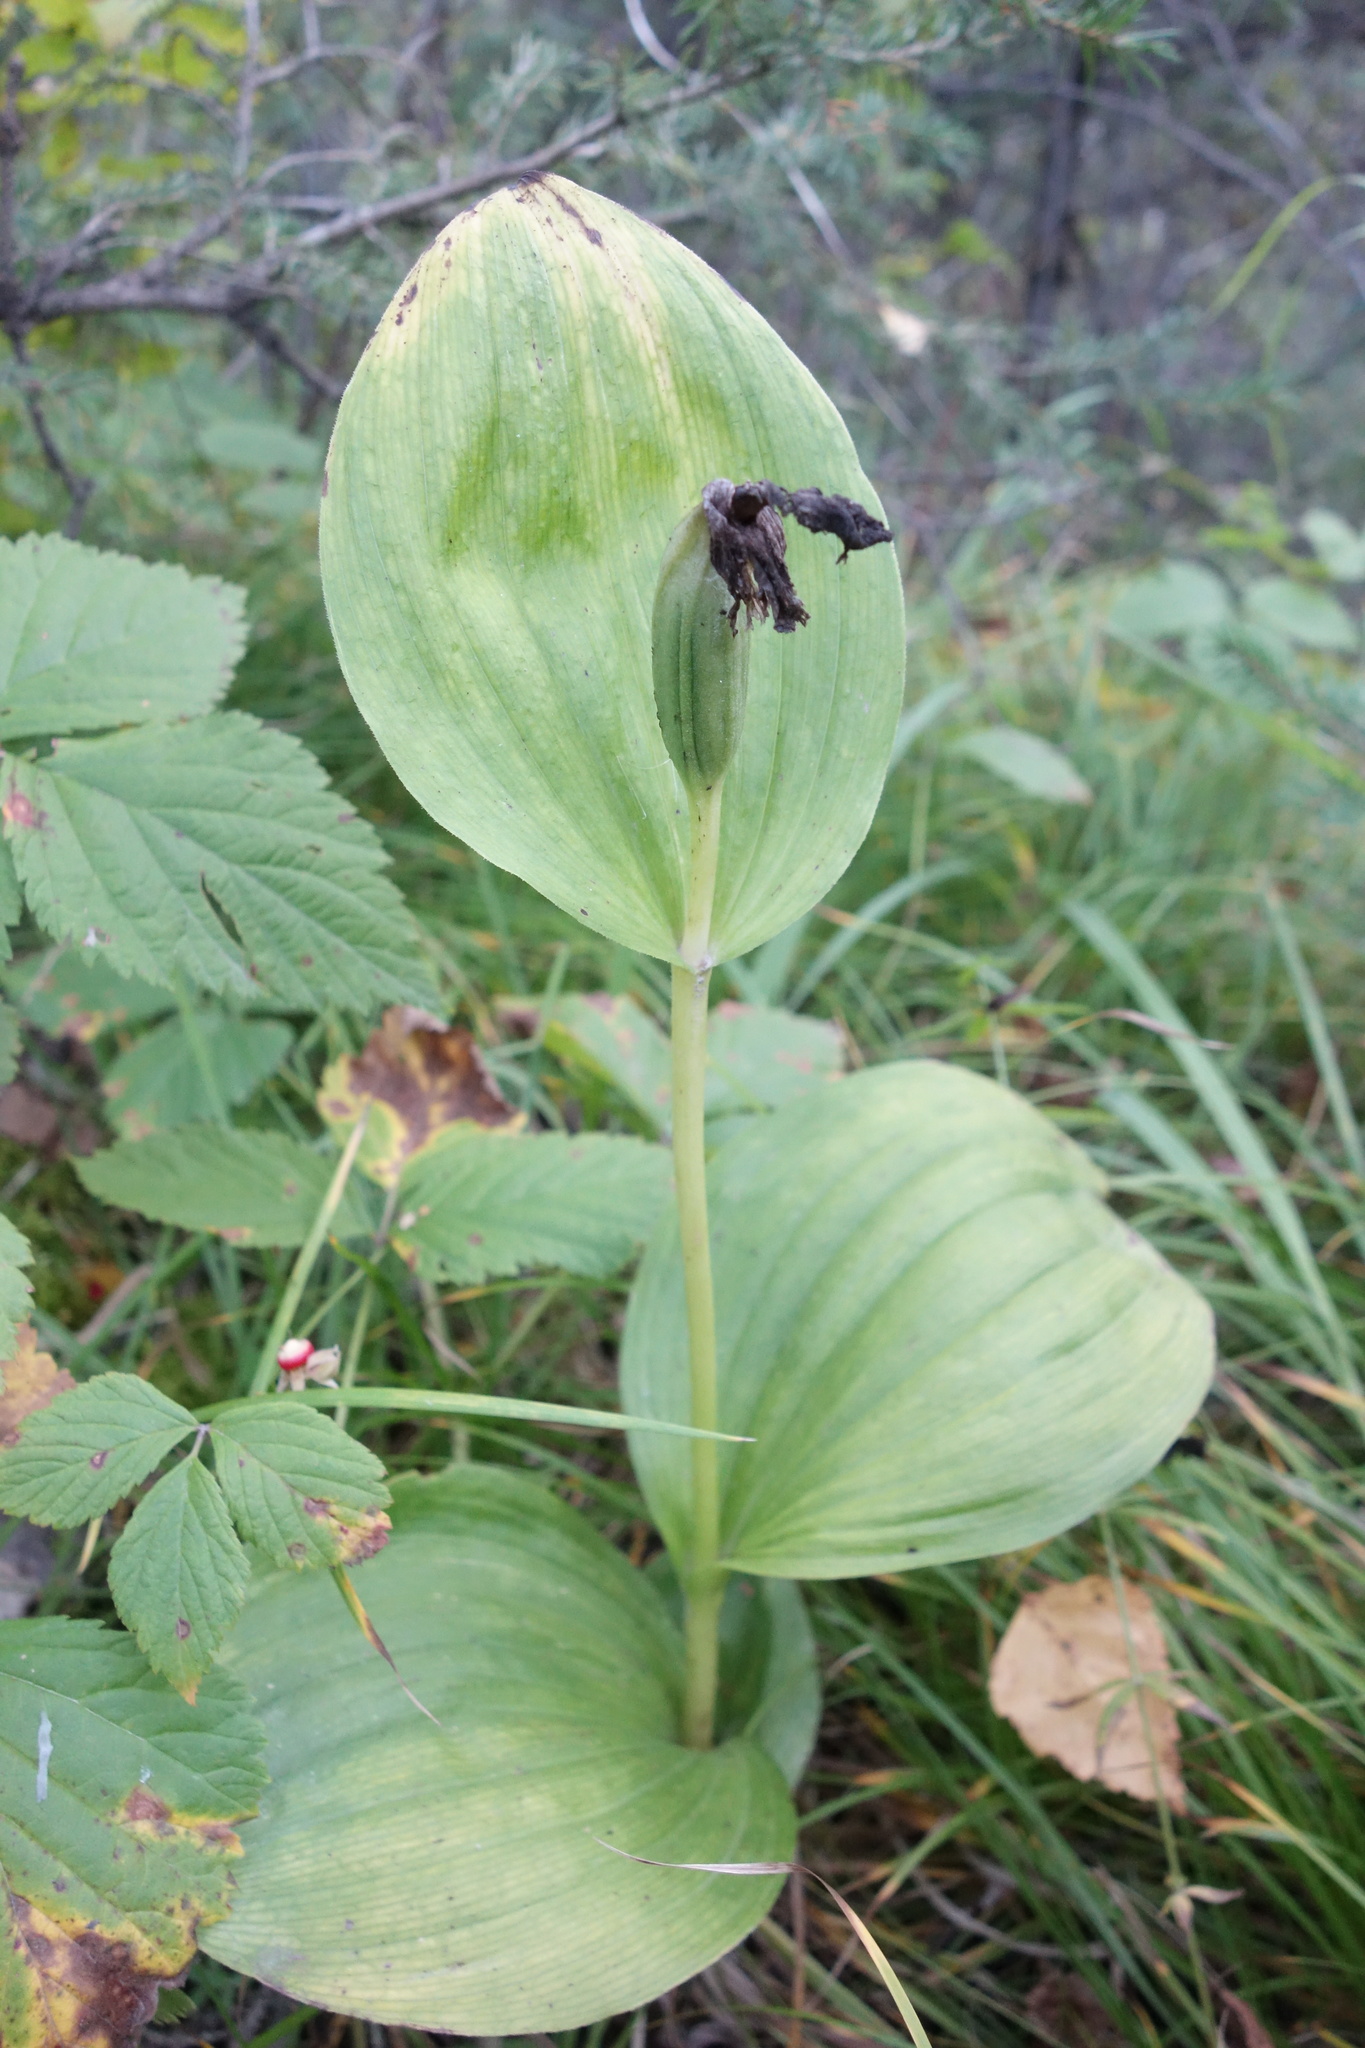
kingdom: Plantae
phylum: Tracheophyta
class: Liliopsida
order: Asparagales
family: Orchidaceae
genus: Cypripedium
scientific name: Cypripedium macranthos
